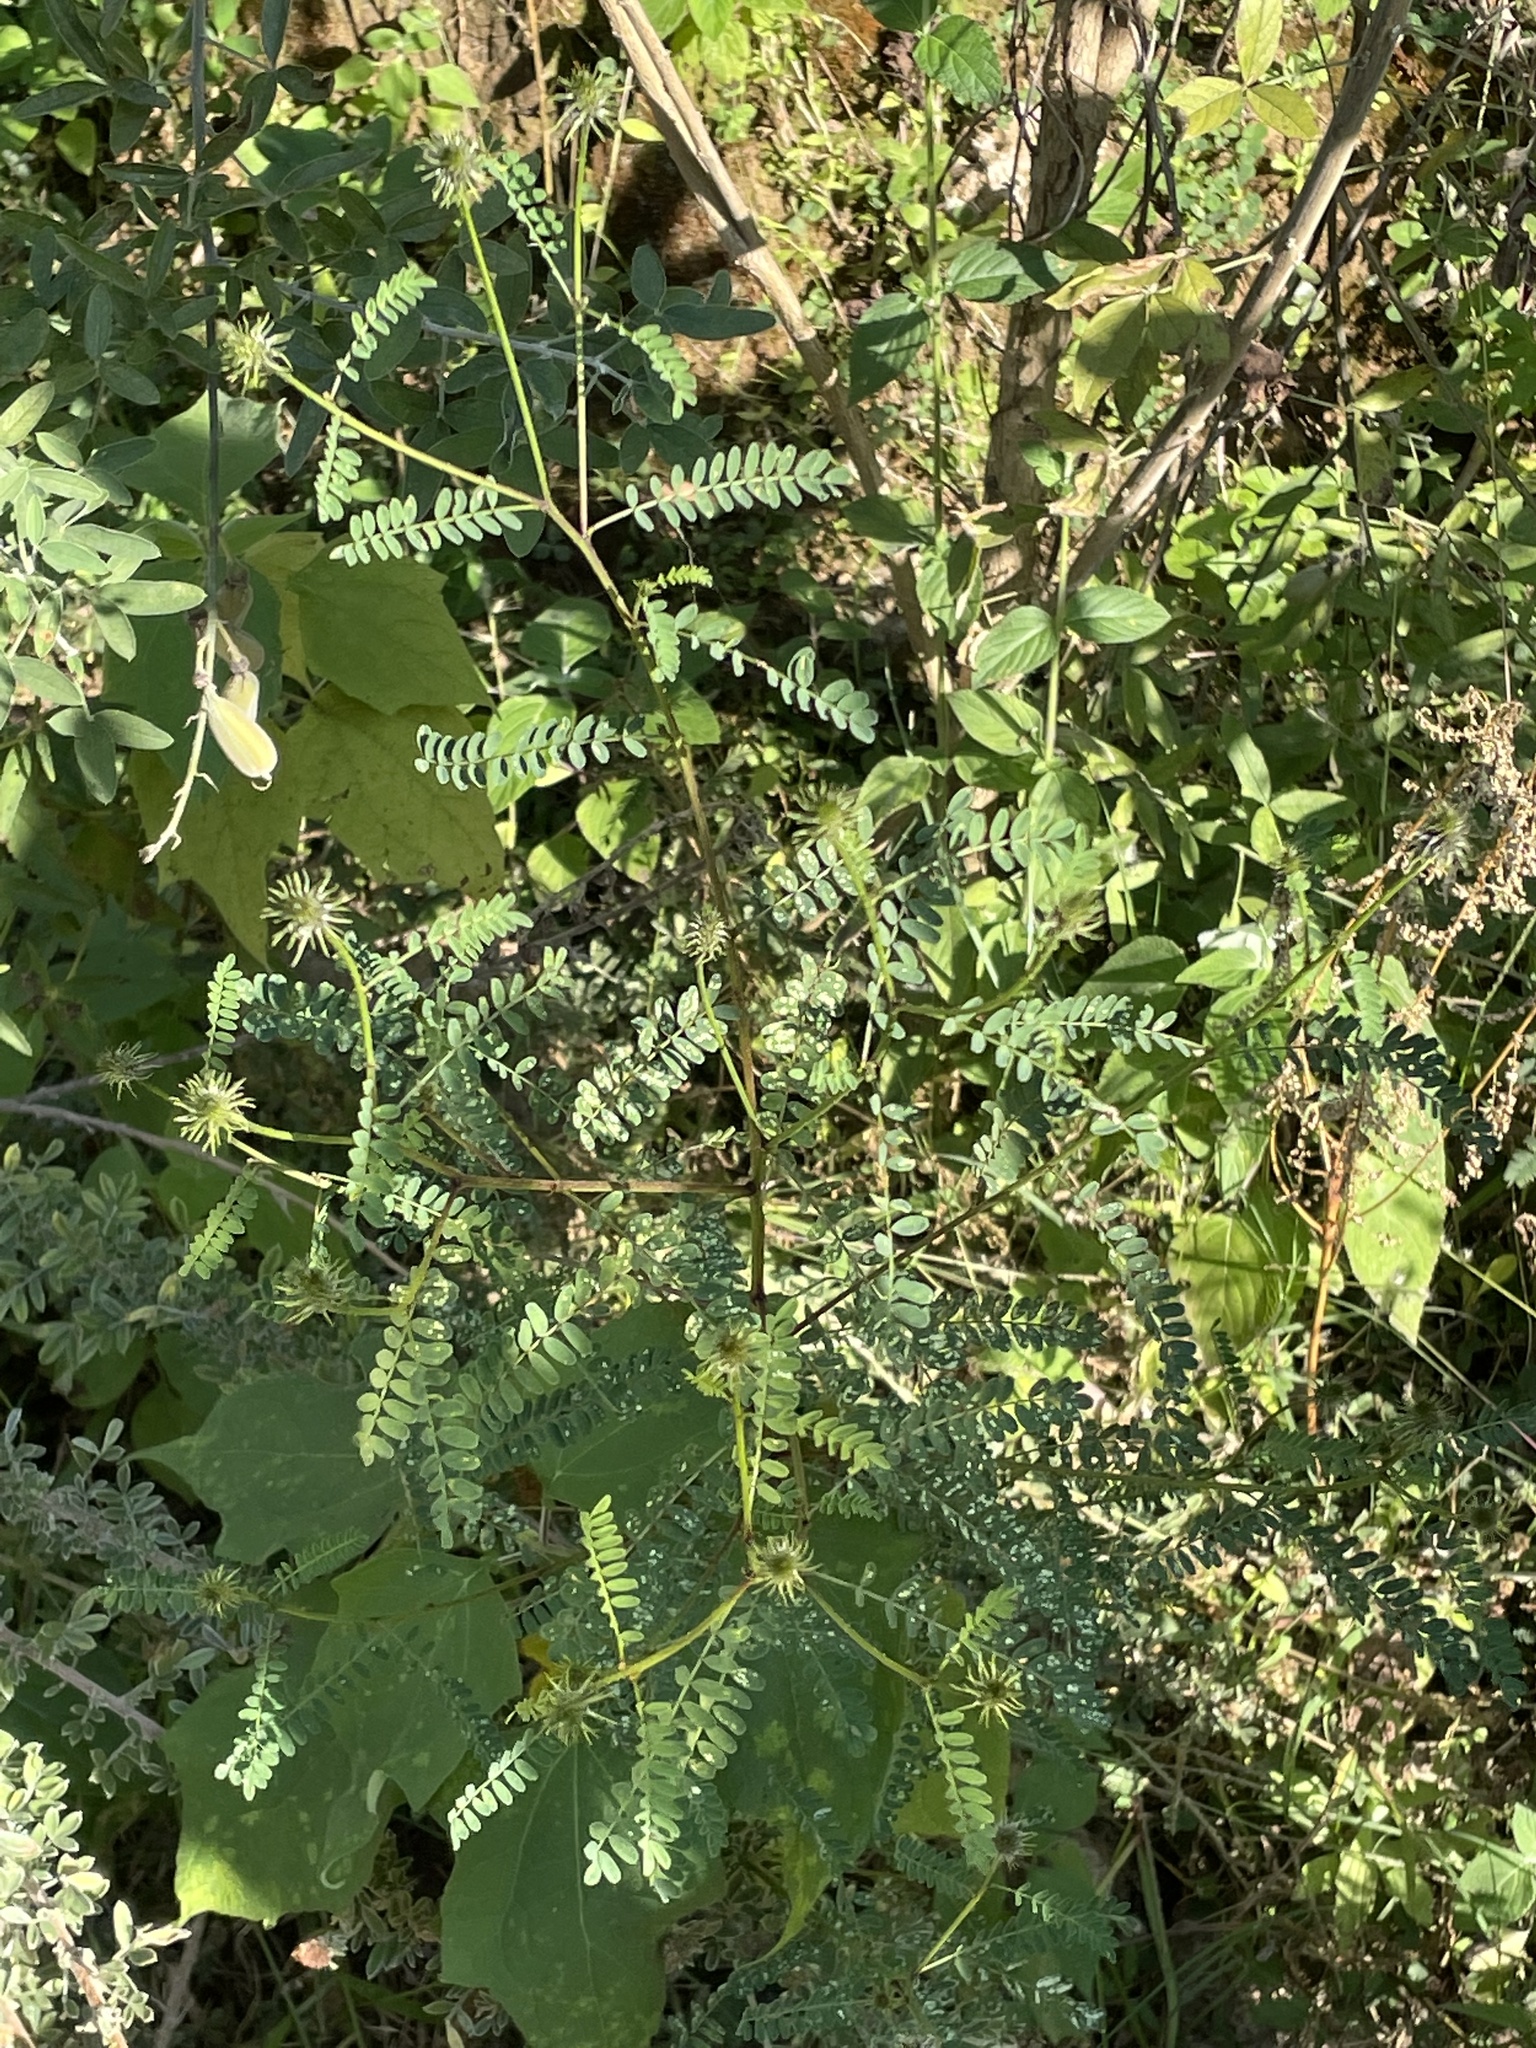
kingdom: Plantae
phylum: Tracheophyta
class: Magnoliopsida
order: Fabales
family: Fabaceae
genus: Dalea
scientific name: Dalea leporina
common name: Foxtail dalea
